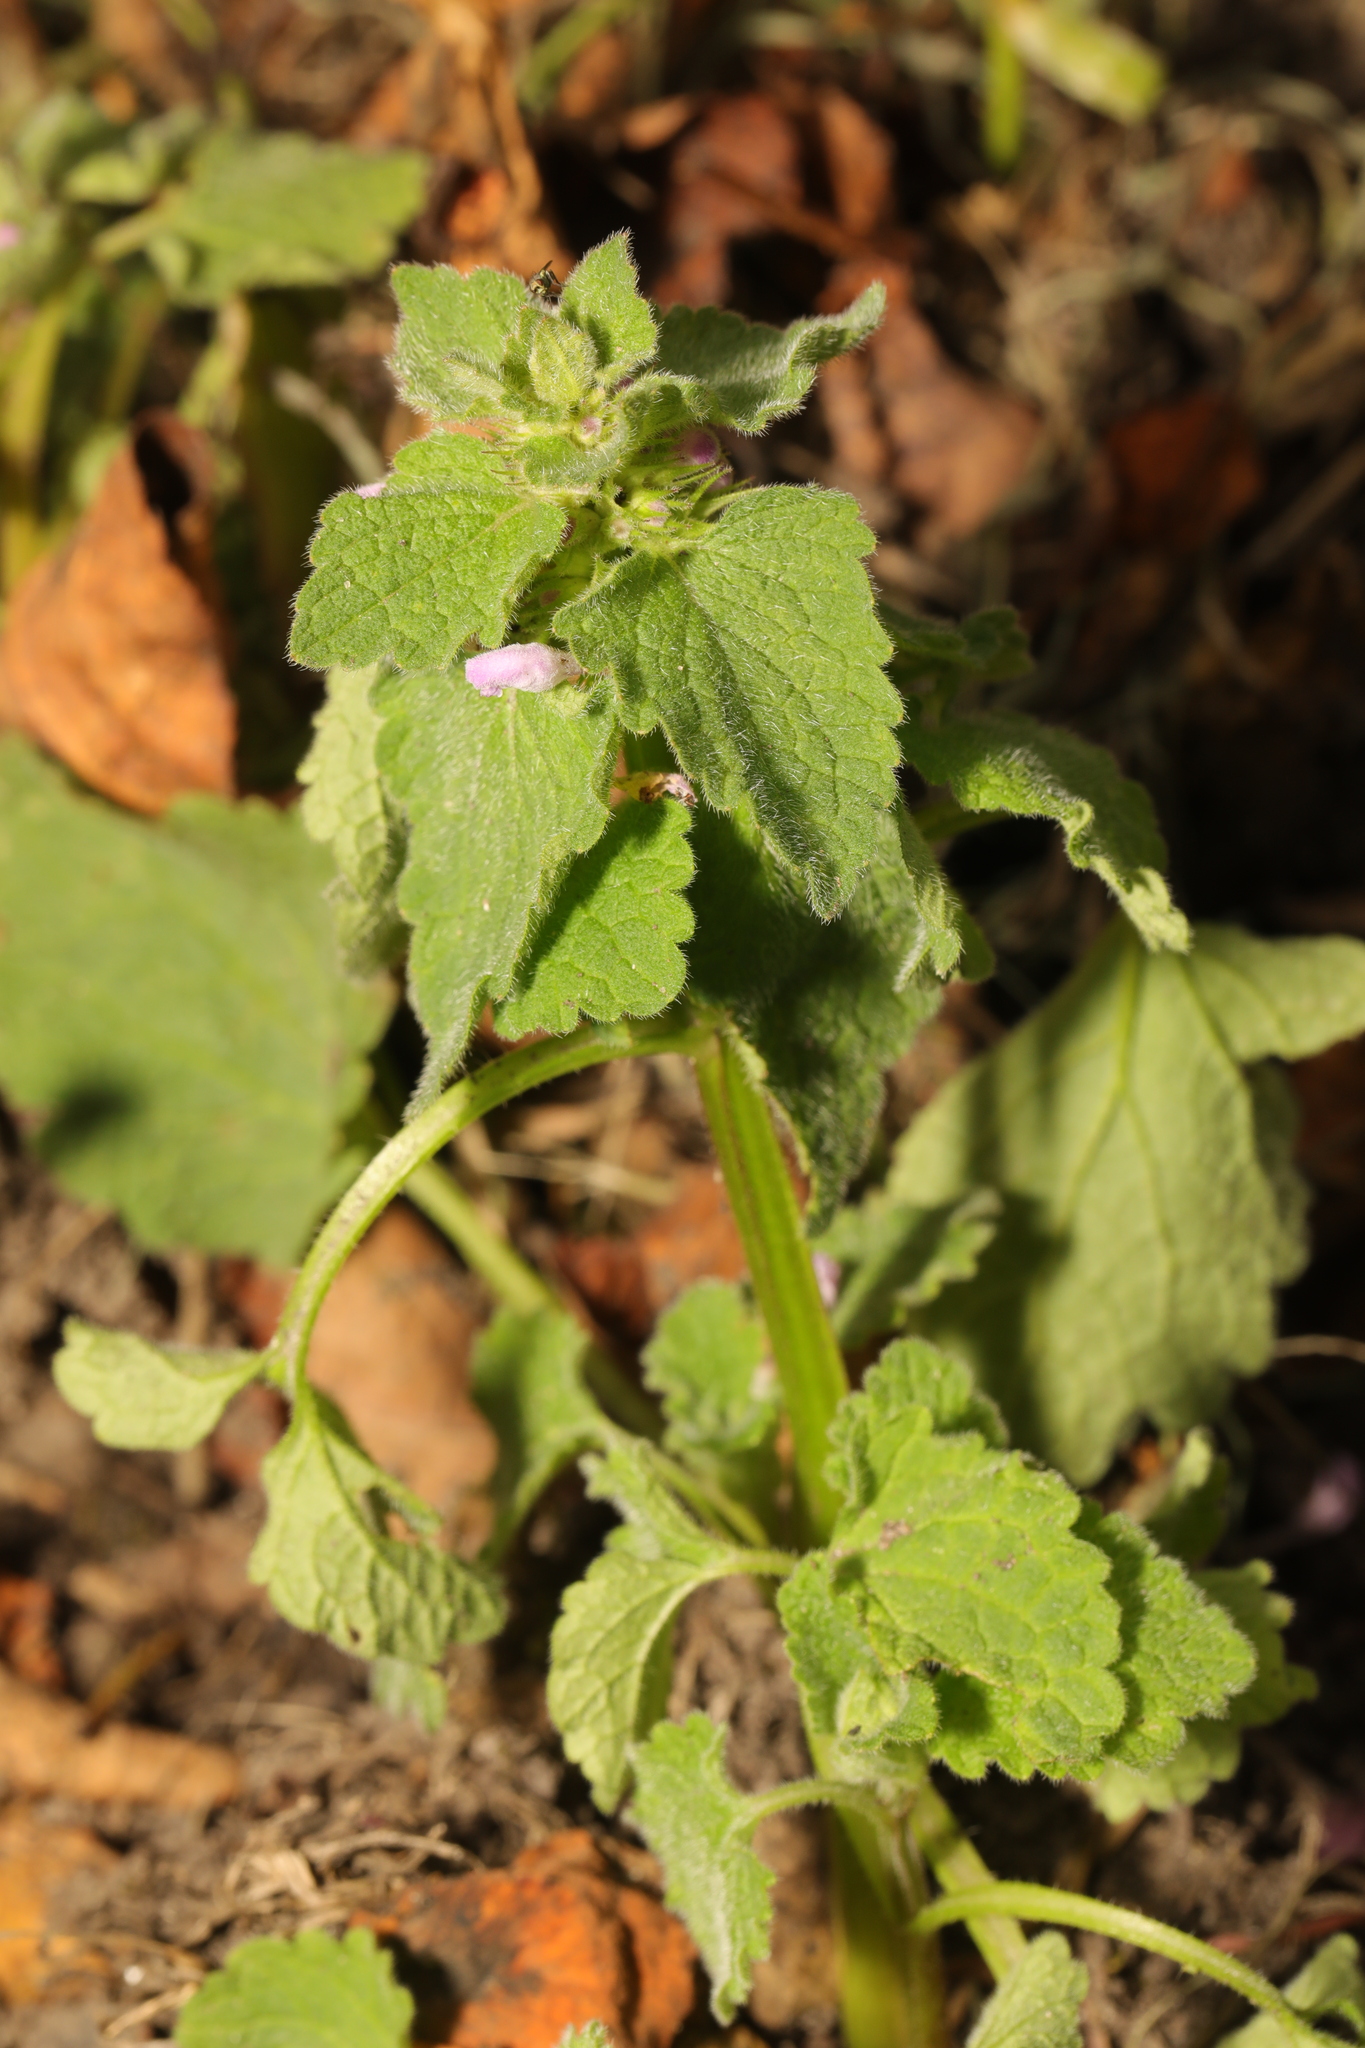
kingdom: Plantae
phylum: Tracheophyta
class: Magnoliopsida
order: Lamiales
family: Lamiaceae
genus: Lamium
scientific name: Lamium purpureum
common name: Red dead-nettle
